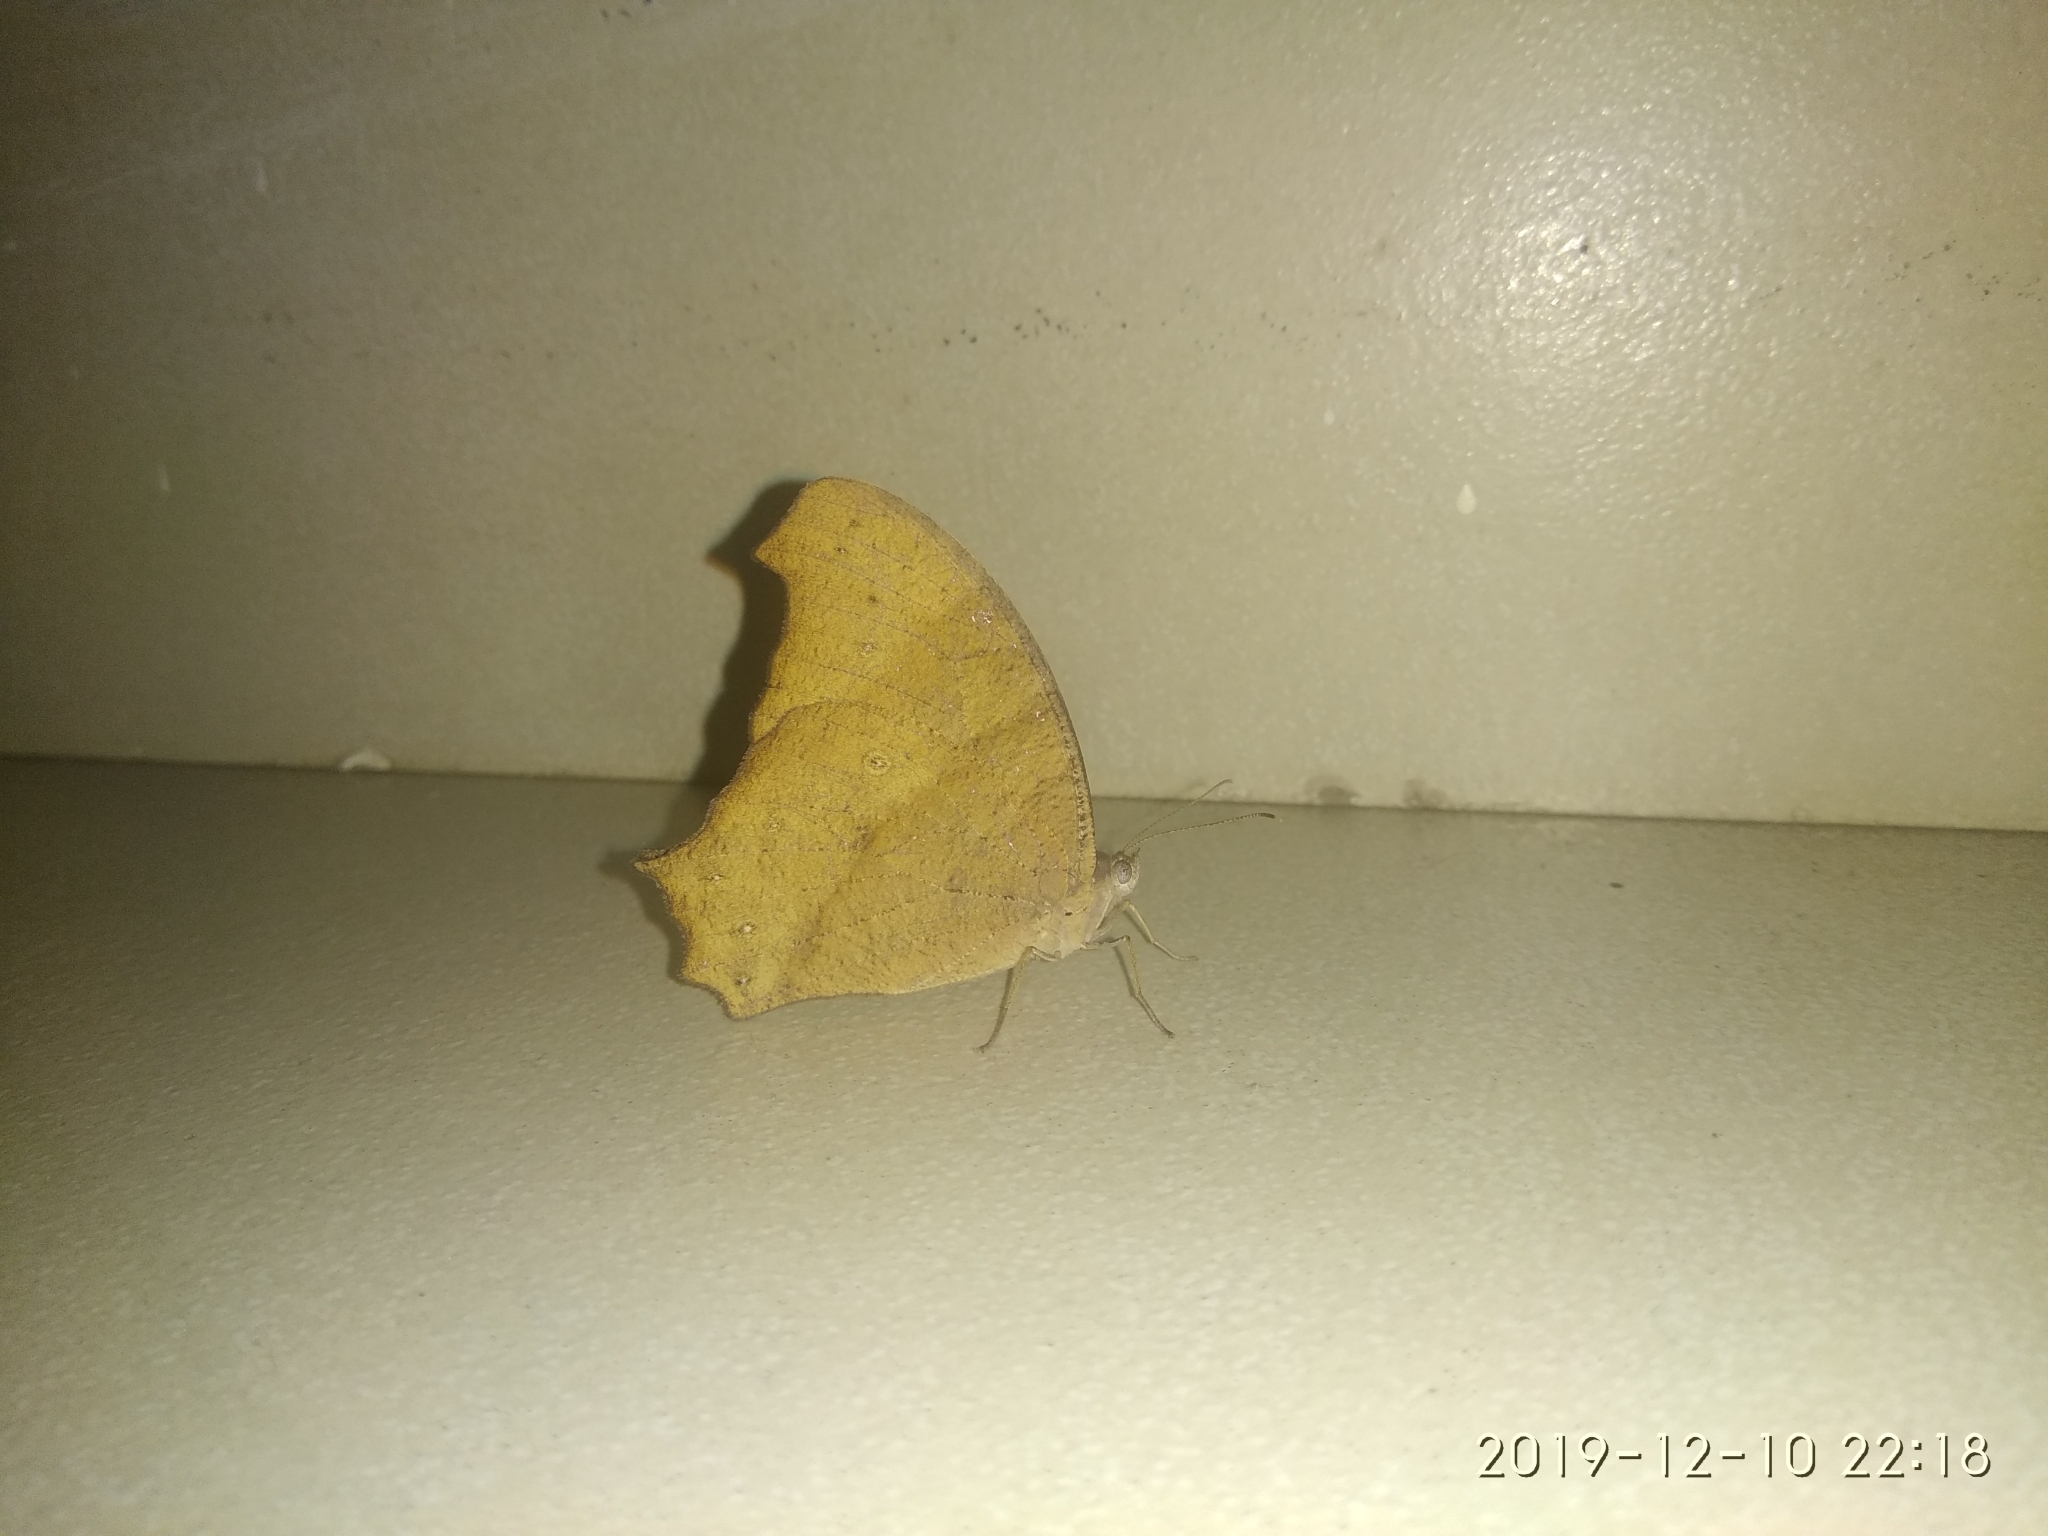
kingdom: Animalia
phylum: Arthropoda
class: Insecta
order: Lepidoptera
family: Nymphalidae
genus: Melanitis
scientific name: Melanitis leda
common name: Twilight brown
